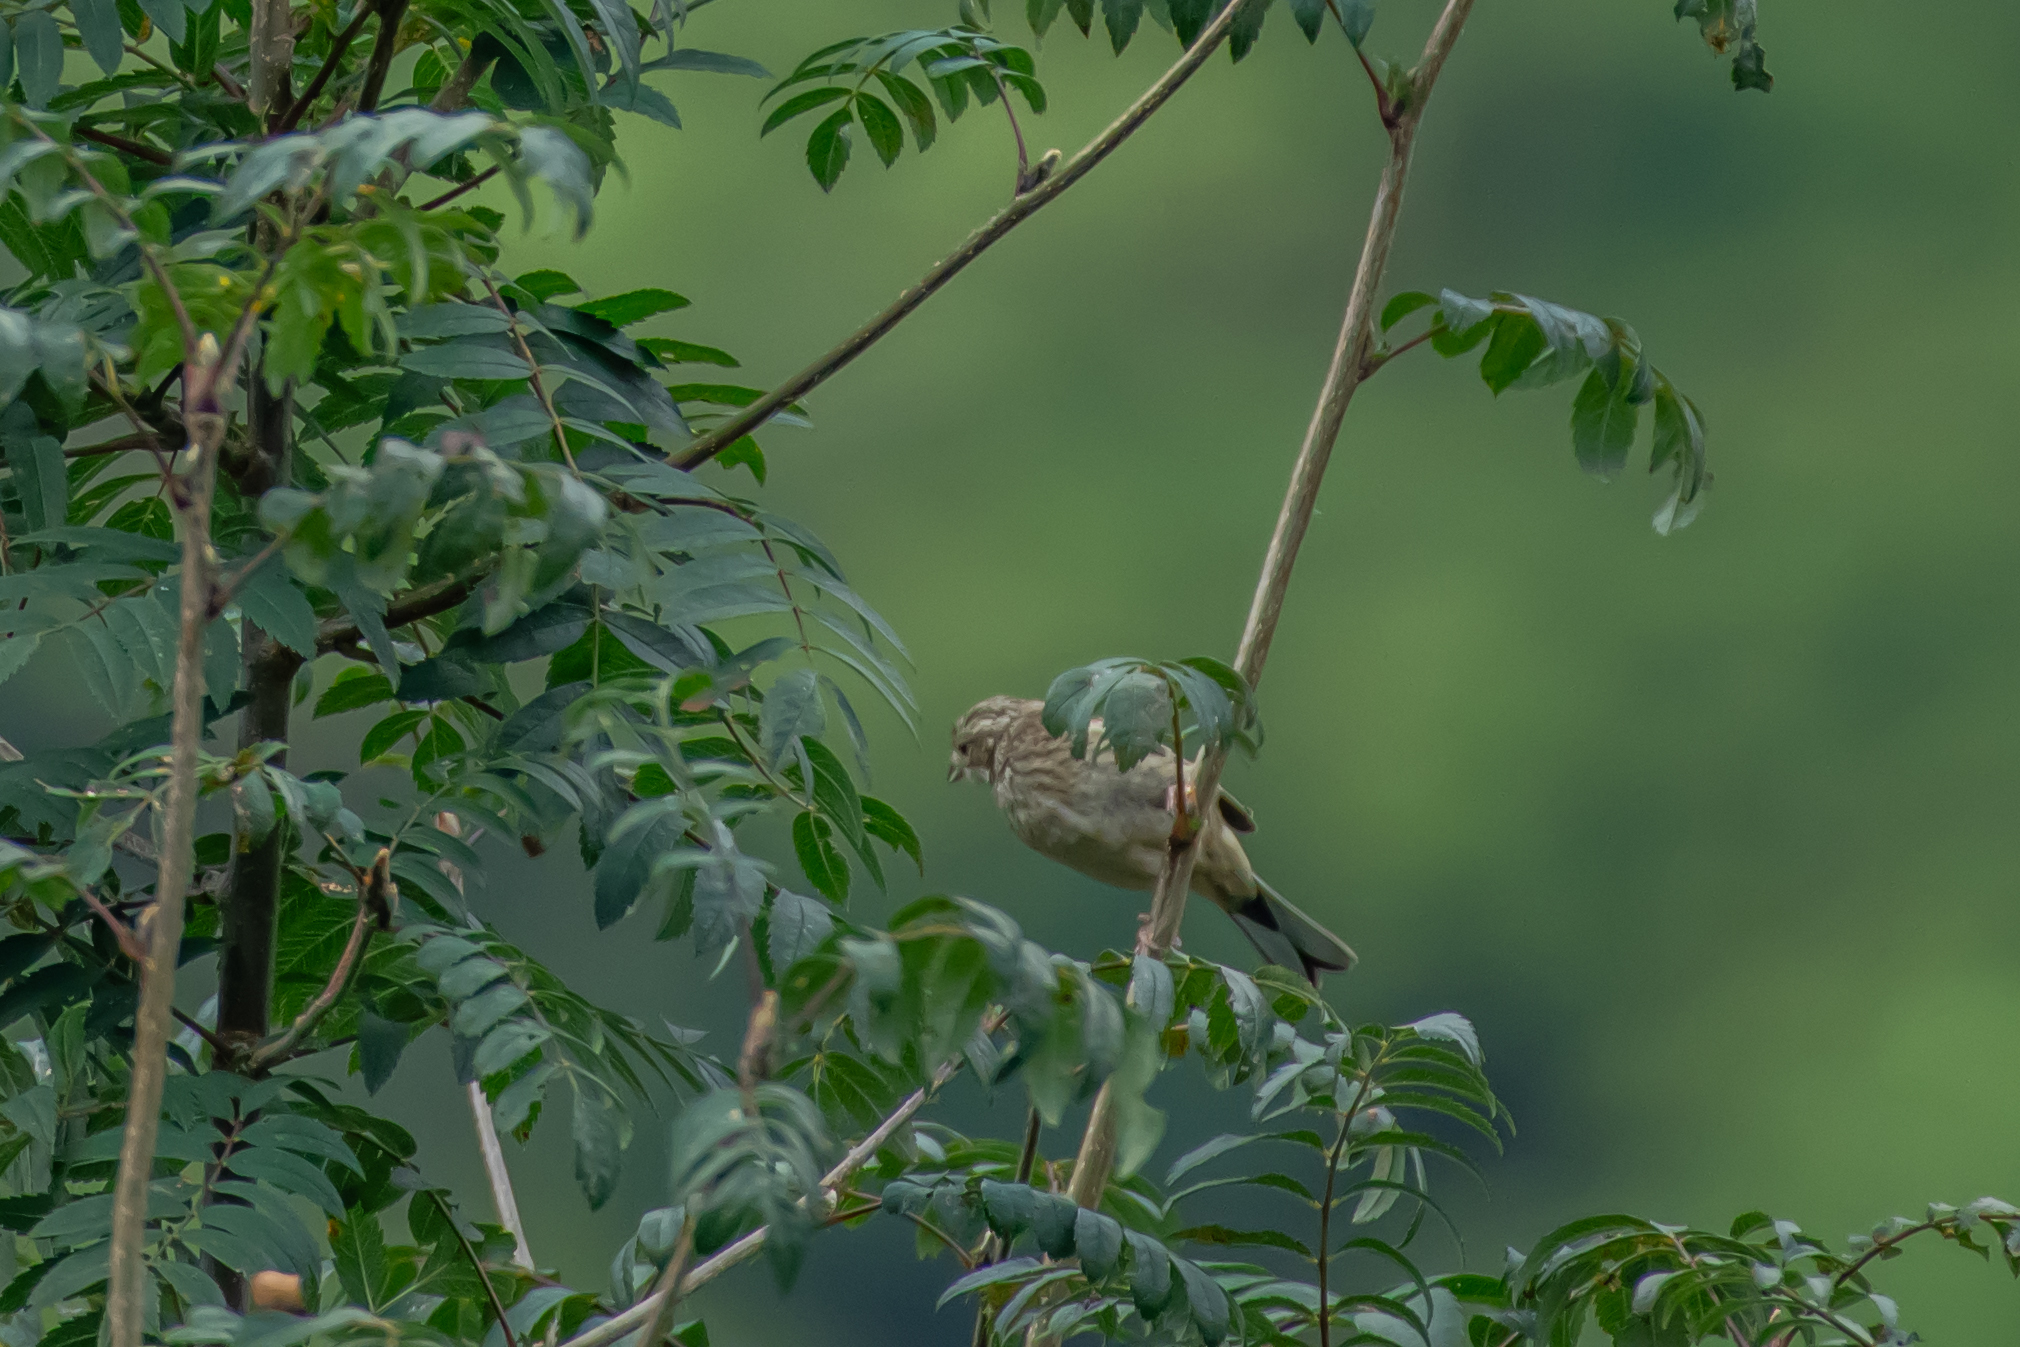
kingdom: Animalia
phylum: Chordata
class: Aves
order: Passeriformes
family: Emberizidae
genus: Emberiza
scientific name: Emberiza cia
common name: Rock bunting
